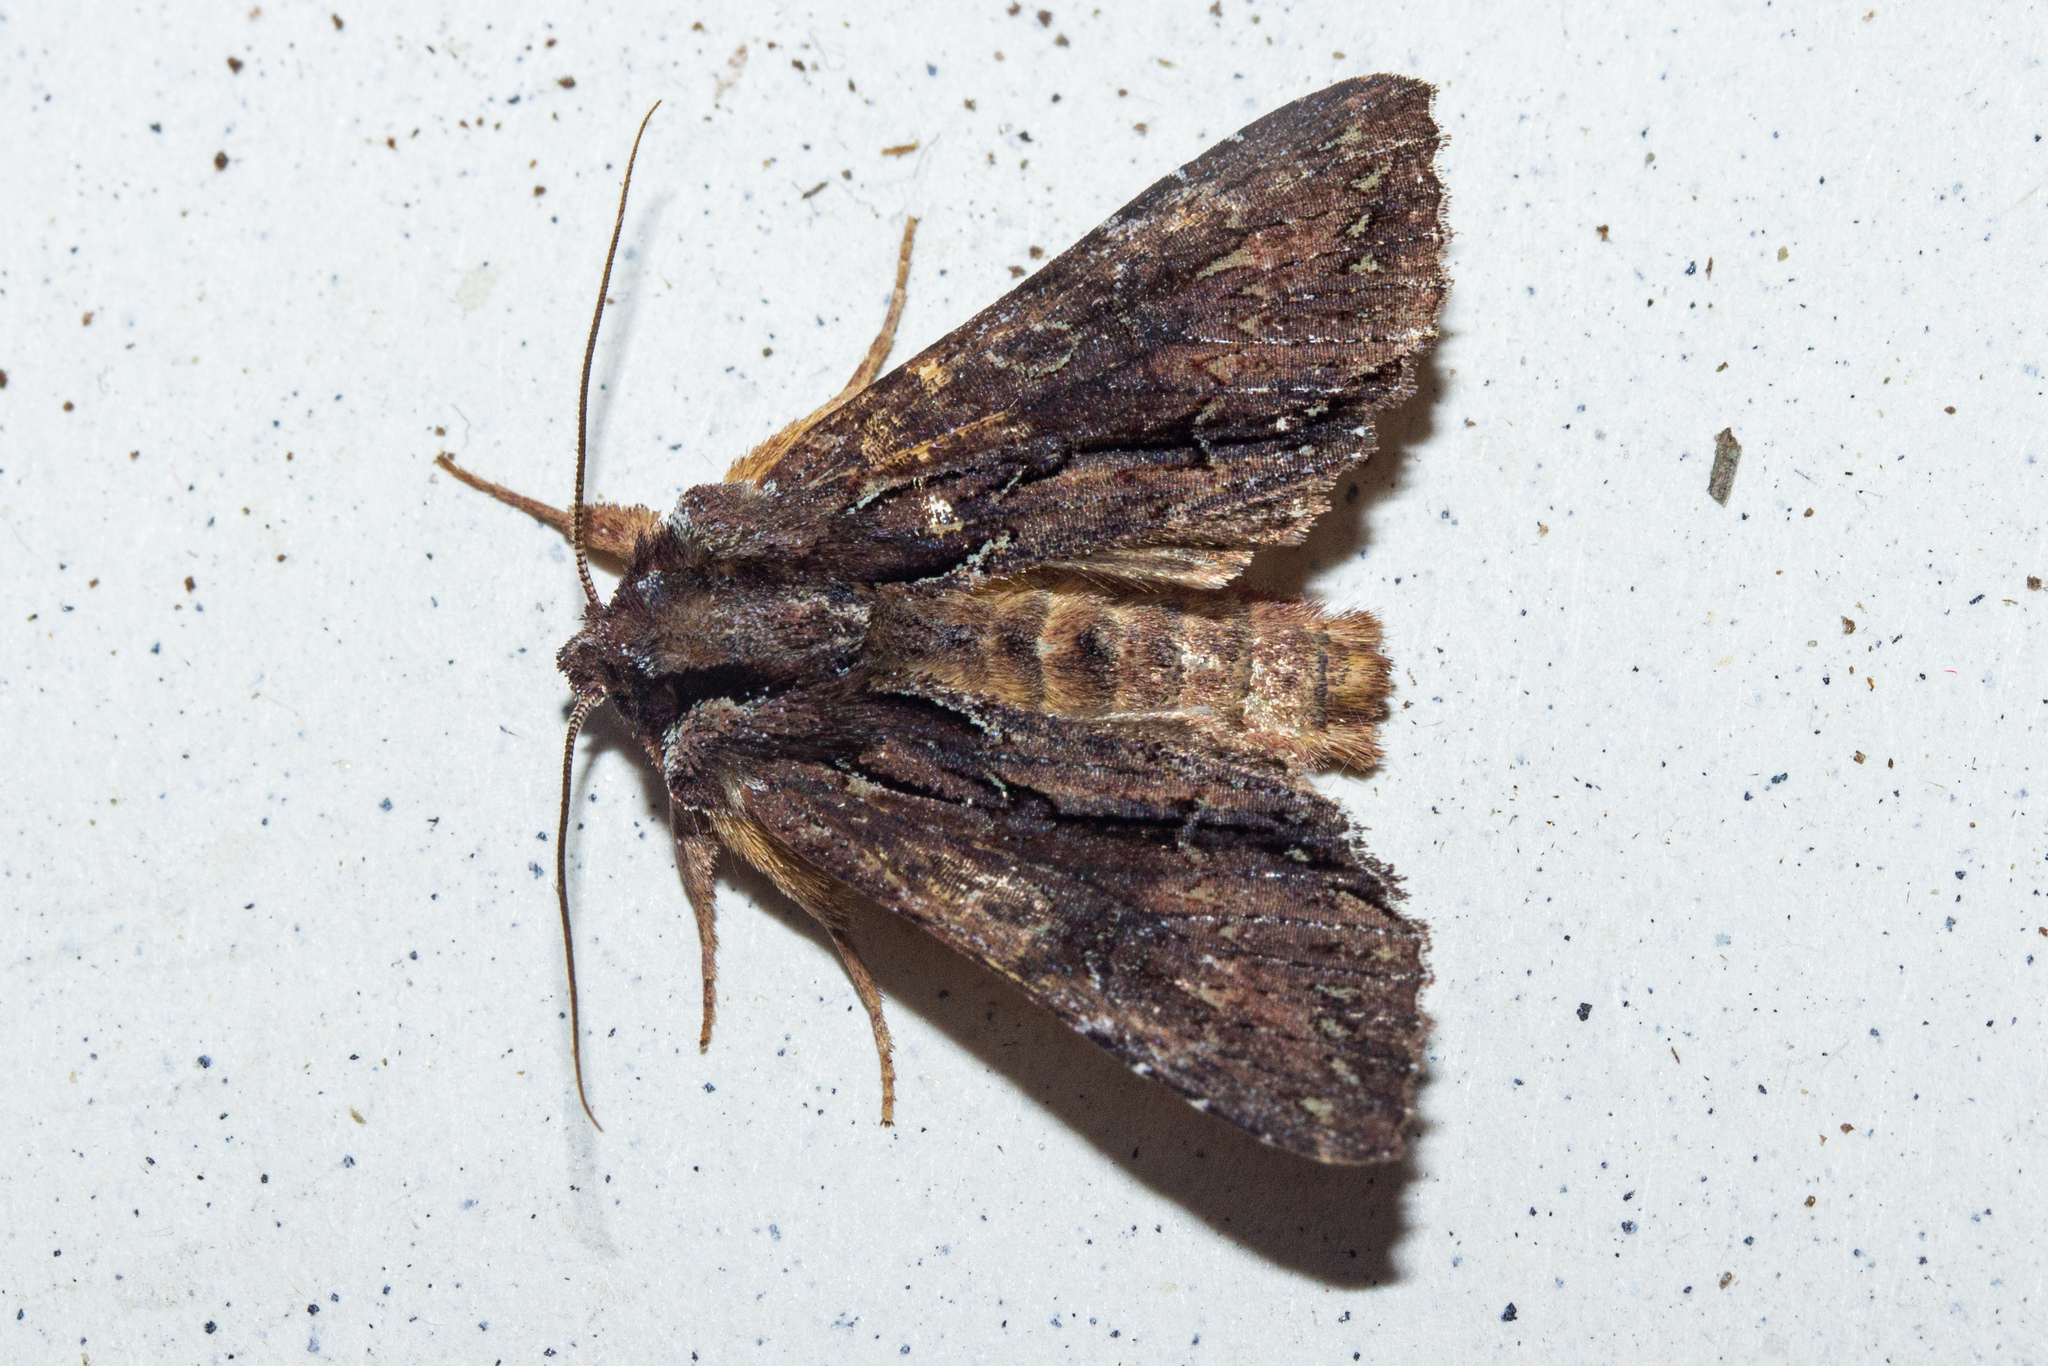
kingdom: Animalia
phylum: Arthropoda
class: Insecta
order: Lepidoptera
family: Noctuidae
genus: Meterana
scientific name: Meterana diatmeta
